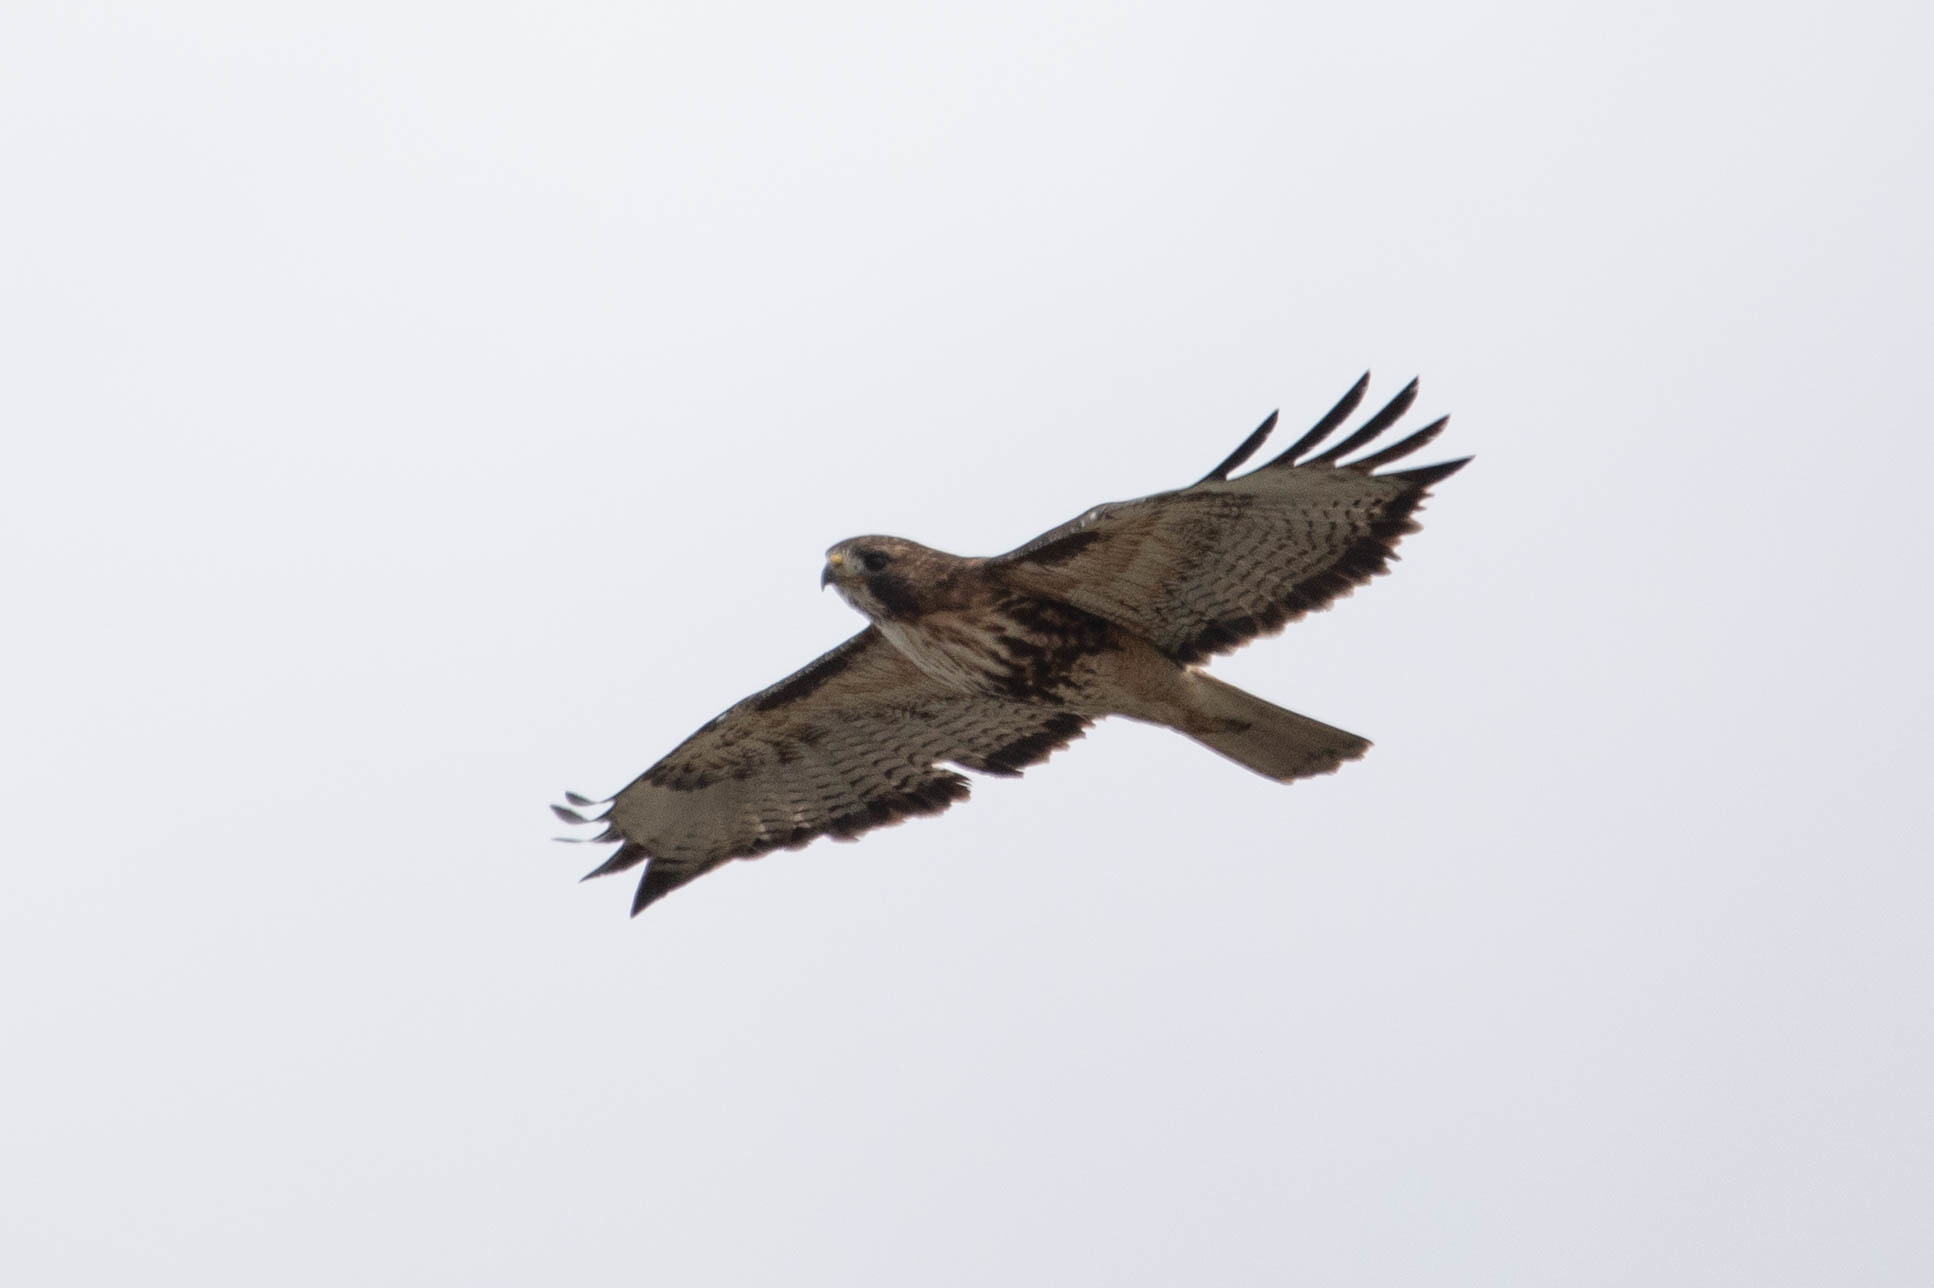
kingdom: Animalia
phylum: Chordata
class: Aves
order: Accipitriformes
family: Accipitridae
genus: Buteo
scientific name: Buteo jamaicensis
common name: Red-tailed hawk
